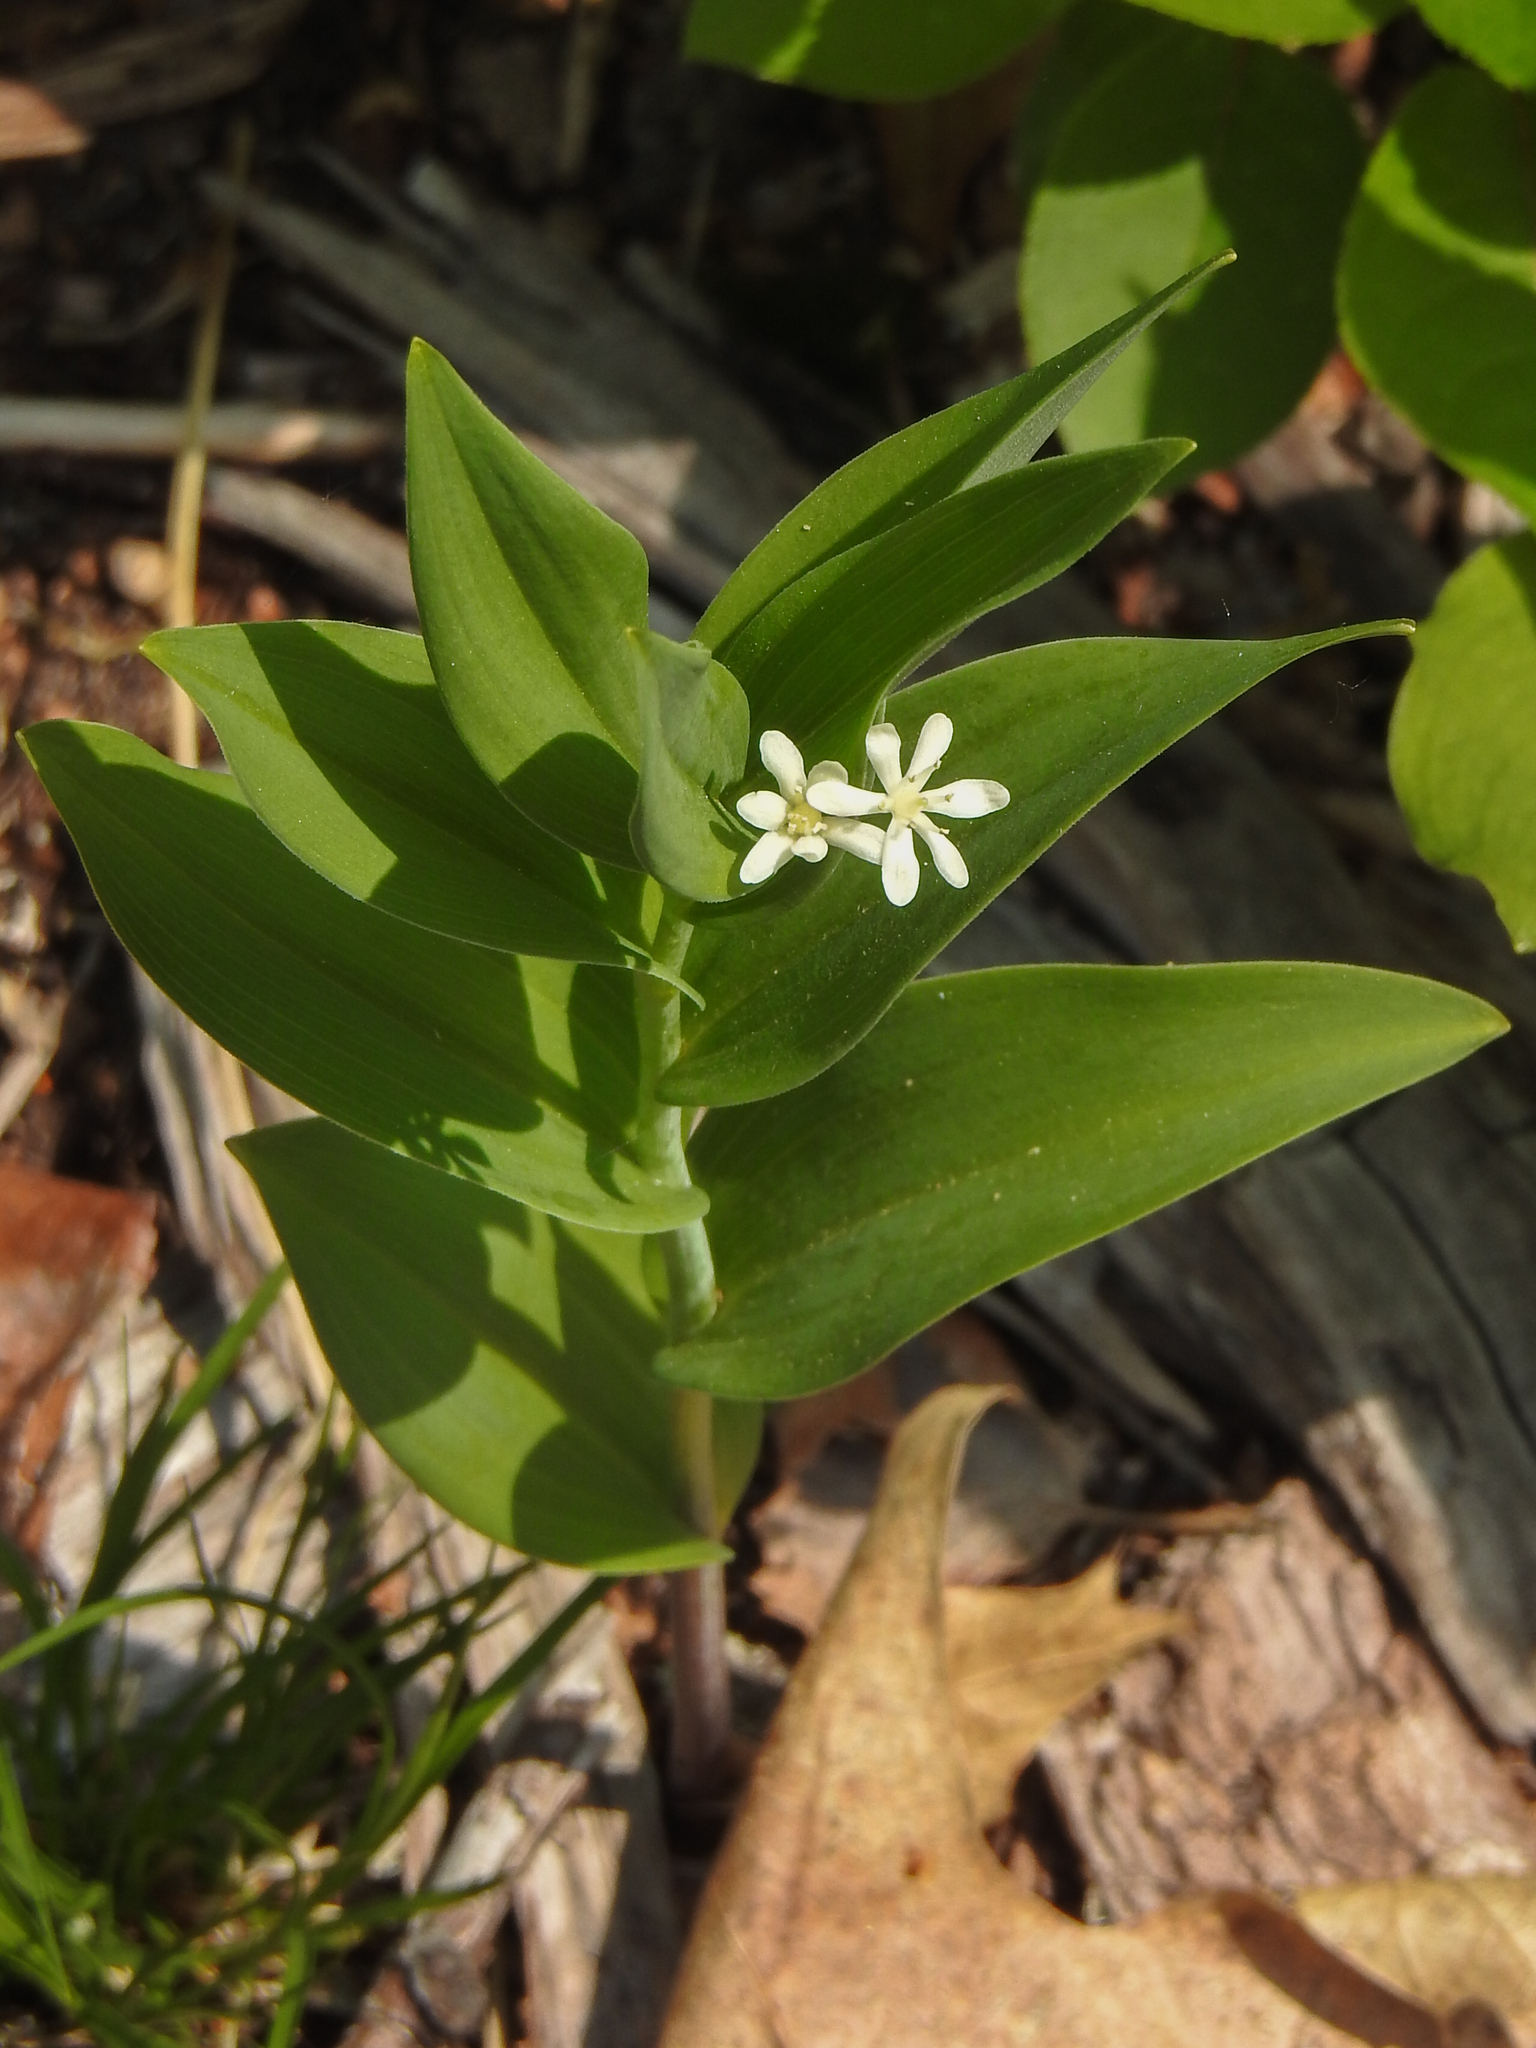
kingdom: Plantae
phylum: Tracheophyta
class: Liliopsida
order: Asparagales
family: Asparagaceae
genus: Maianthemum
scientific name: Maianthemum stellatum
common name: Little false solomon's seal
